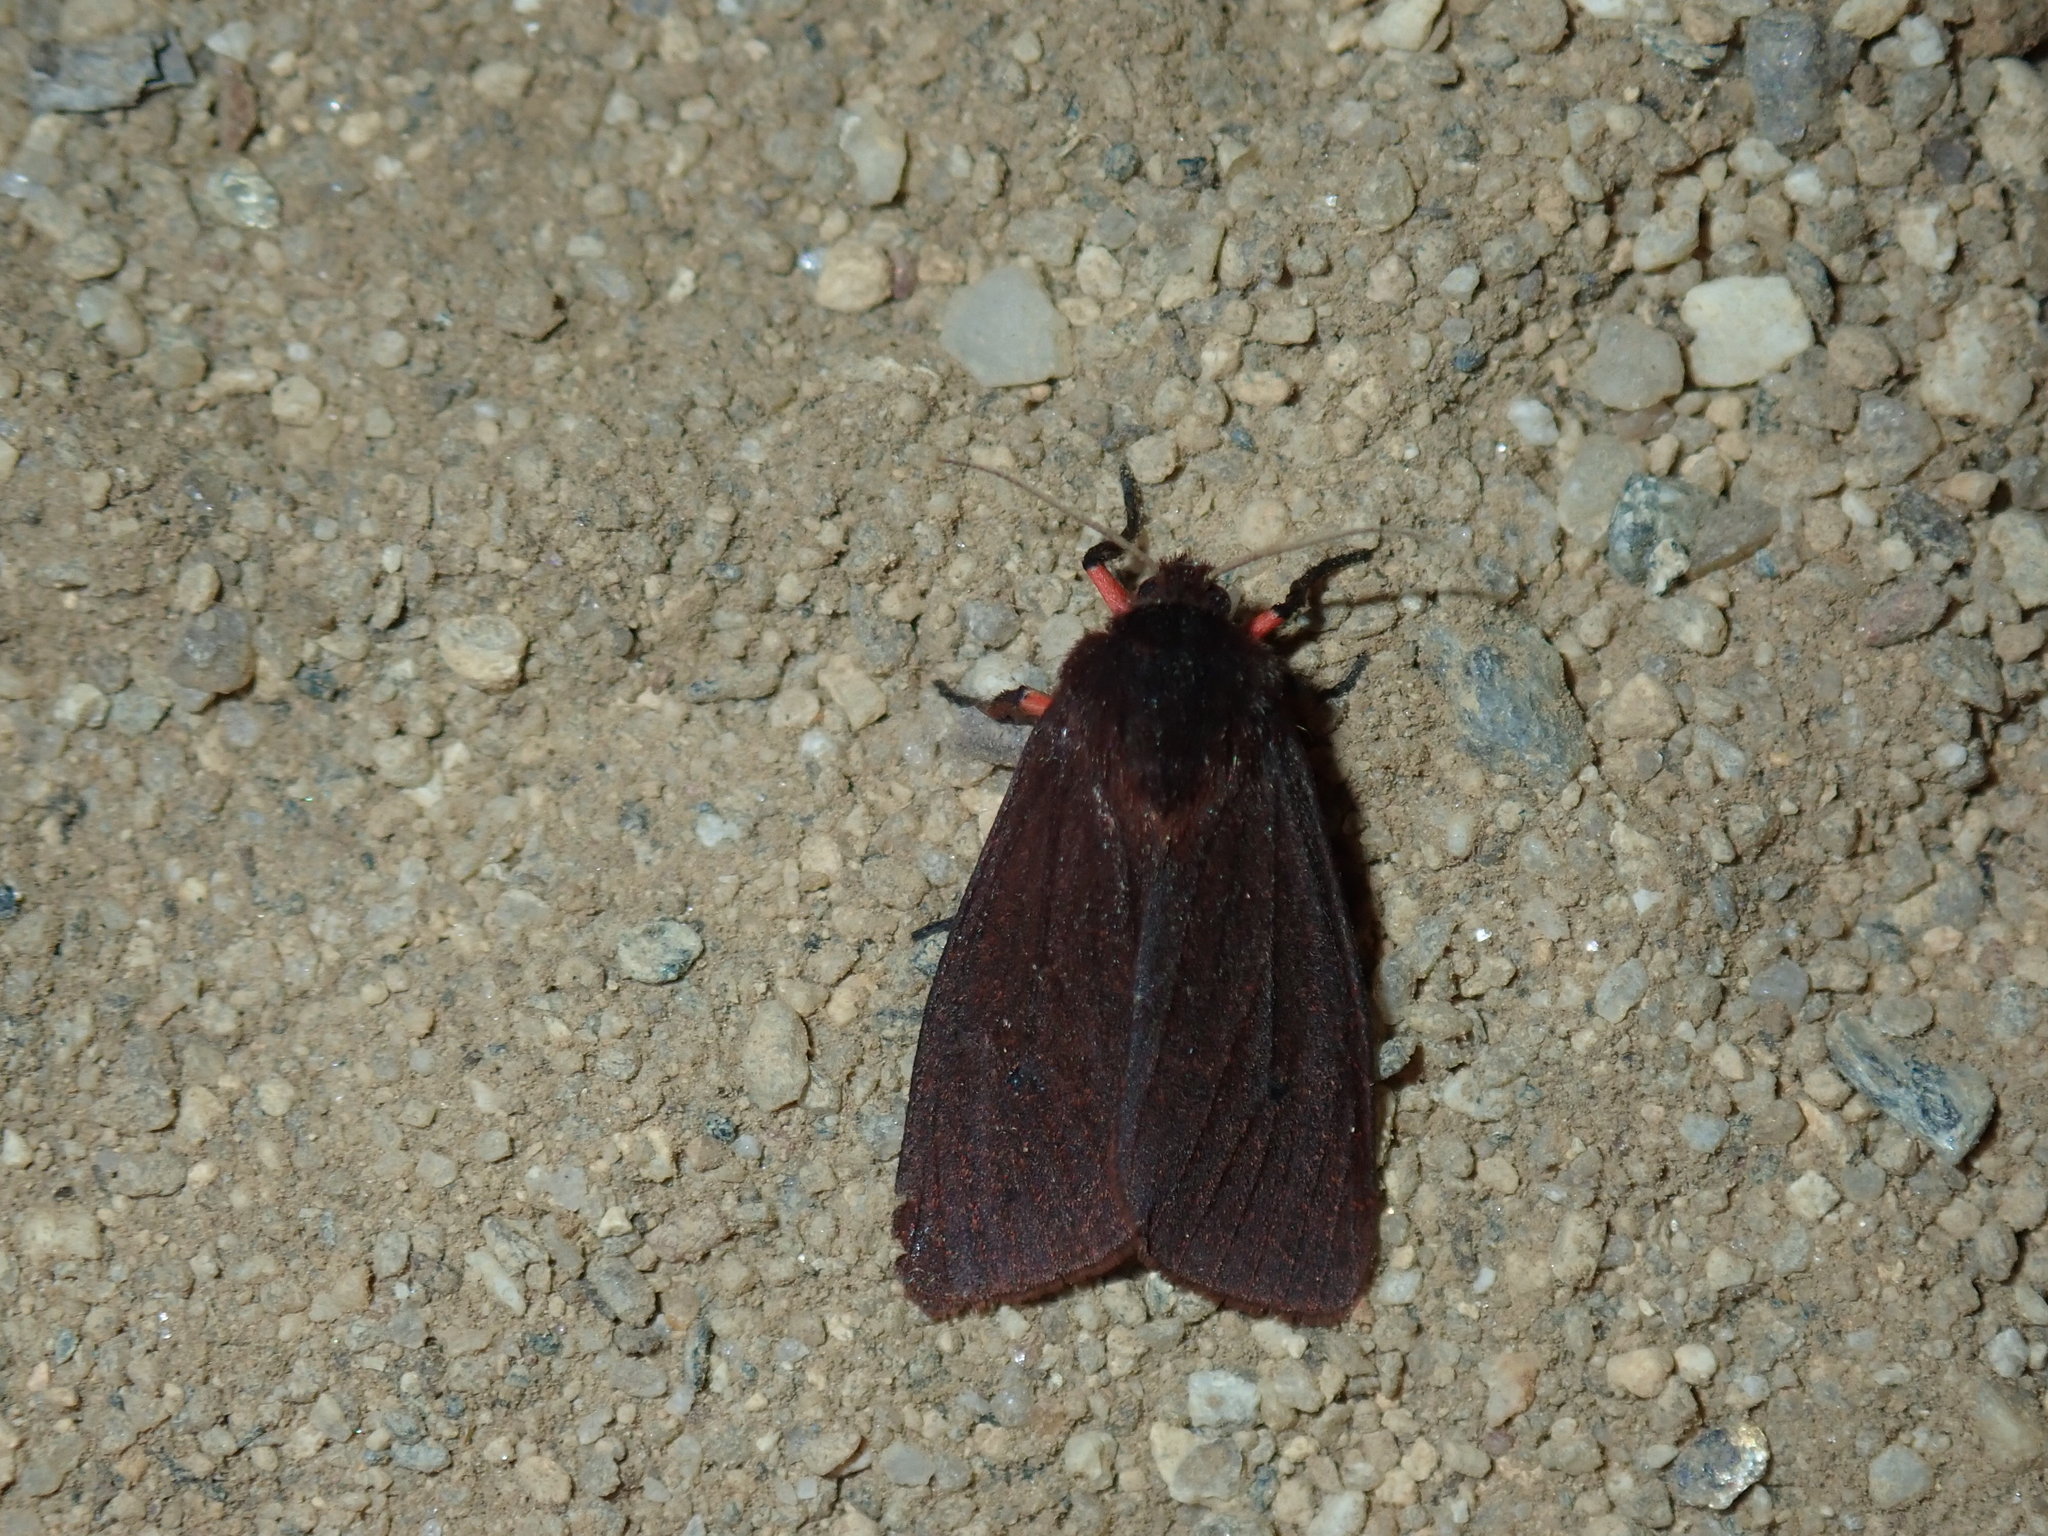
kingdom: Animalia
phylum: Arthropoda
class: Insecta
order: Lepidoptera
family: Erebidae
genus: Phragmatobia
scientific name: Phragmatobia fuliginosa
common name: Ruby tiger
